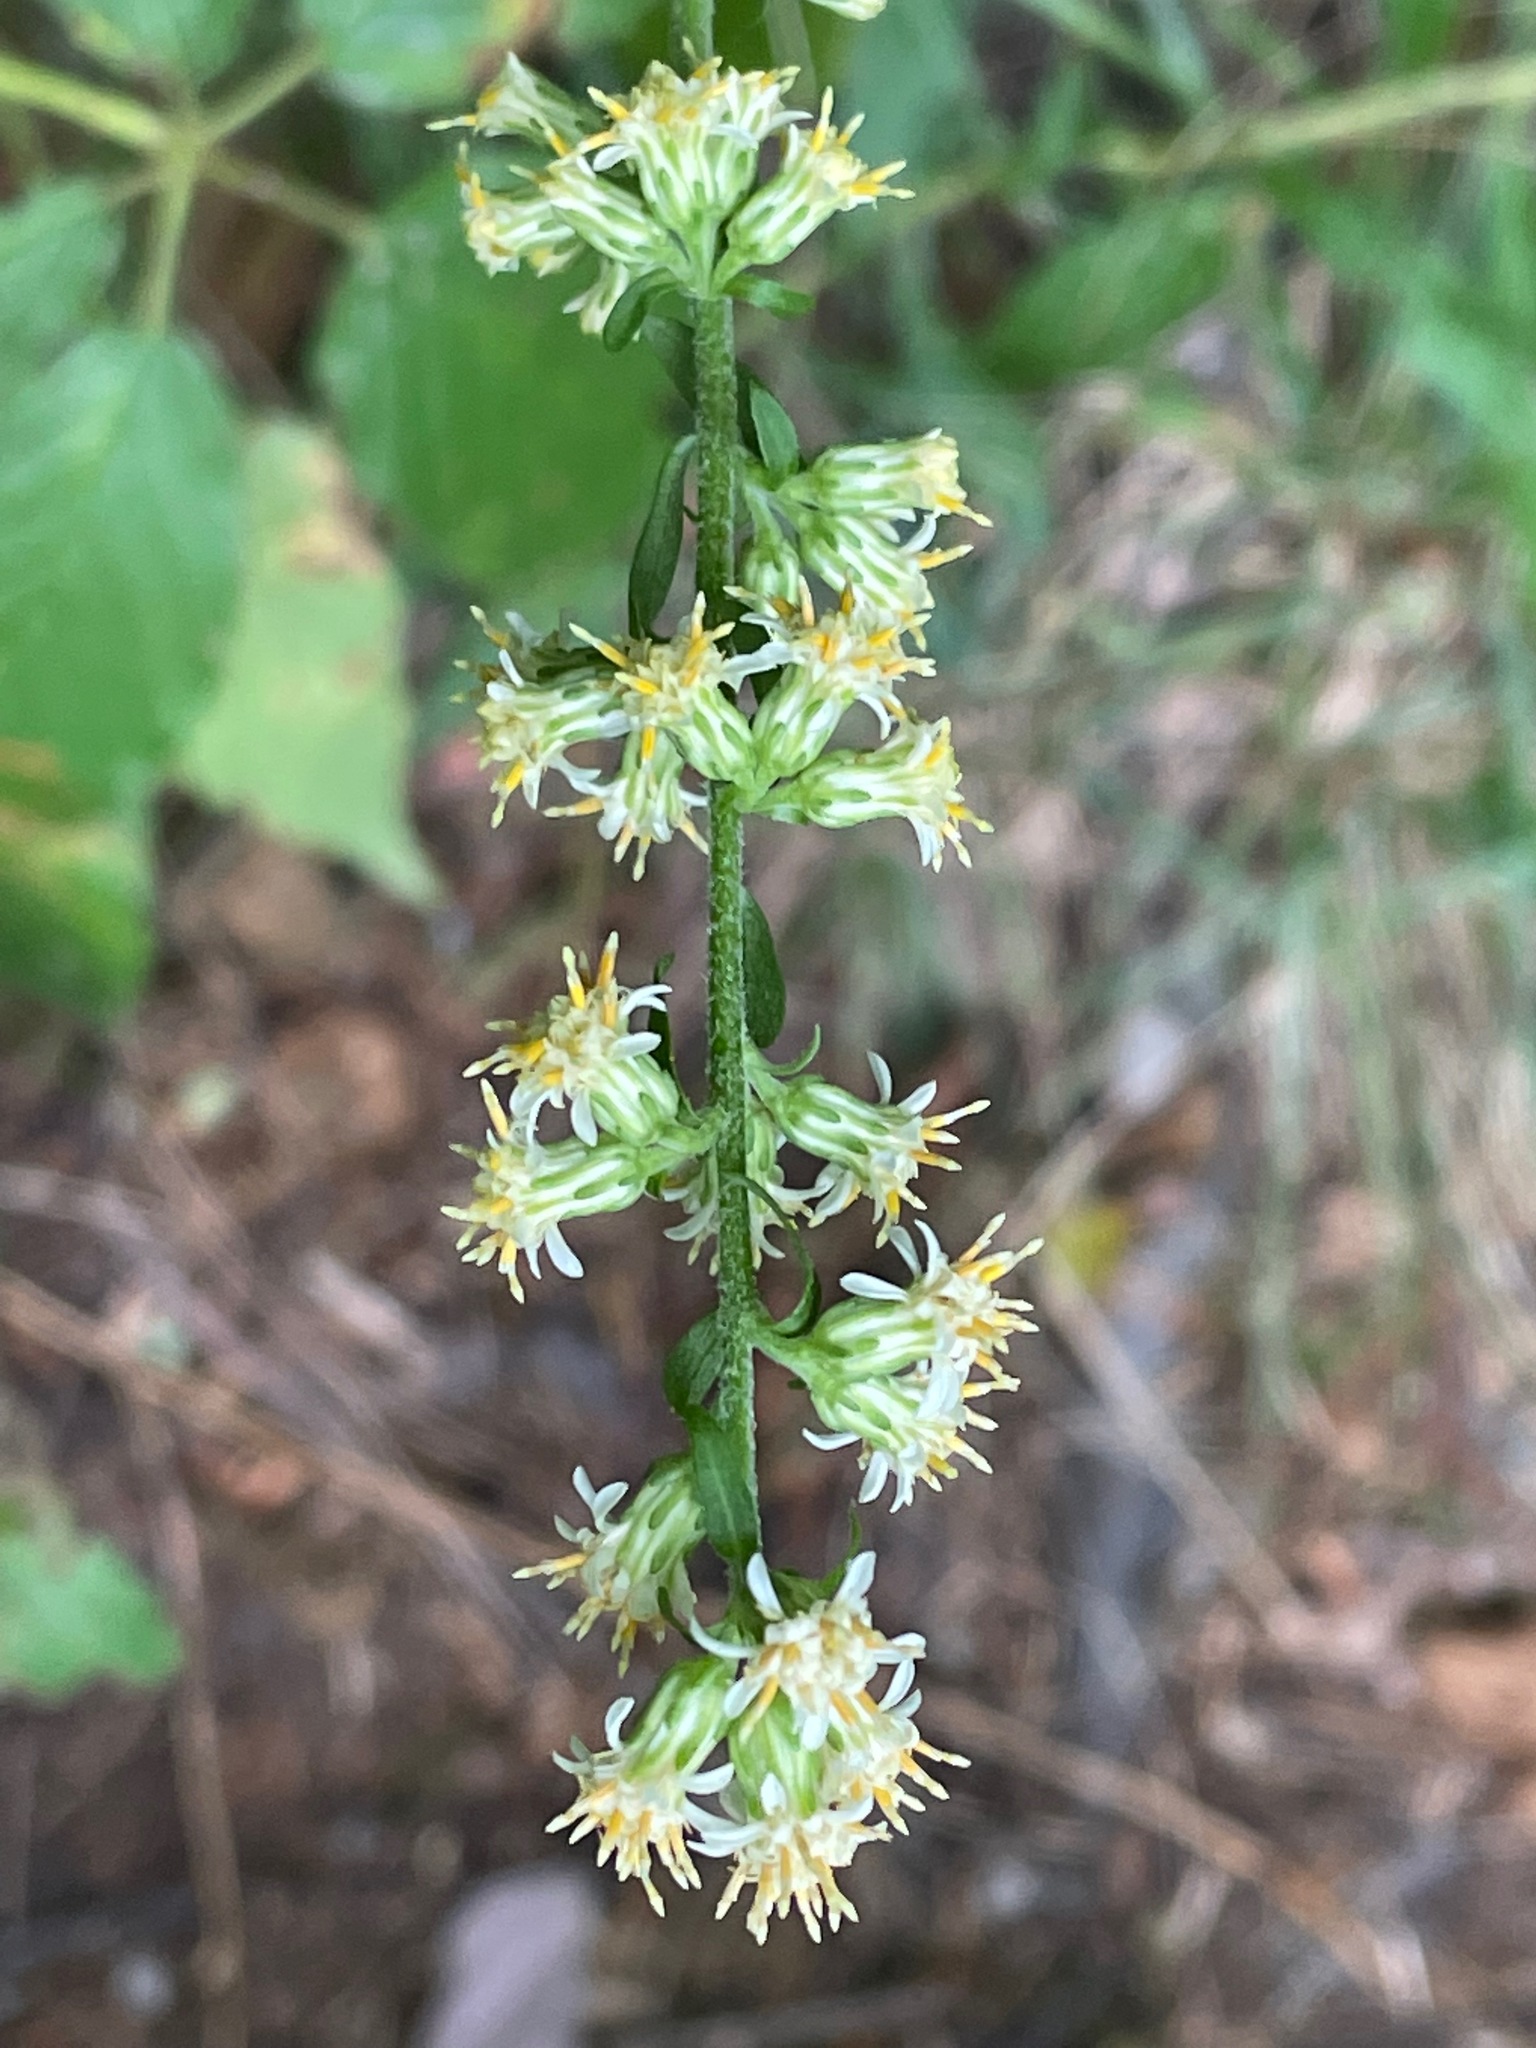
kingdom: Plantae
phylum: Tracheophyta
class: Magnoliopsida
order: Asterales
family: Asteraceae
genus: Solidago
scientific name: Solidago bicolor
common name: Silverrod
